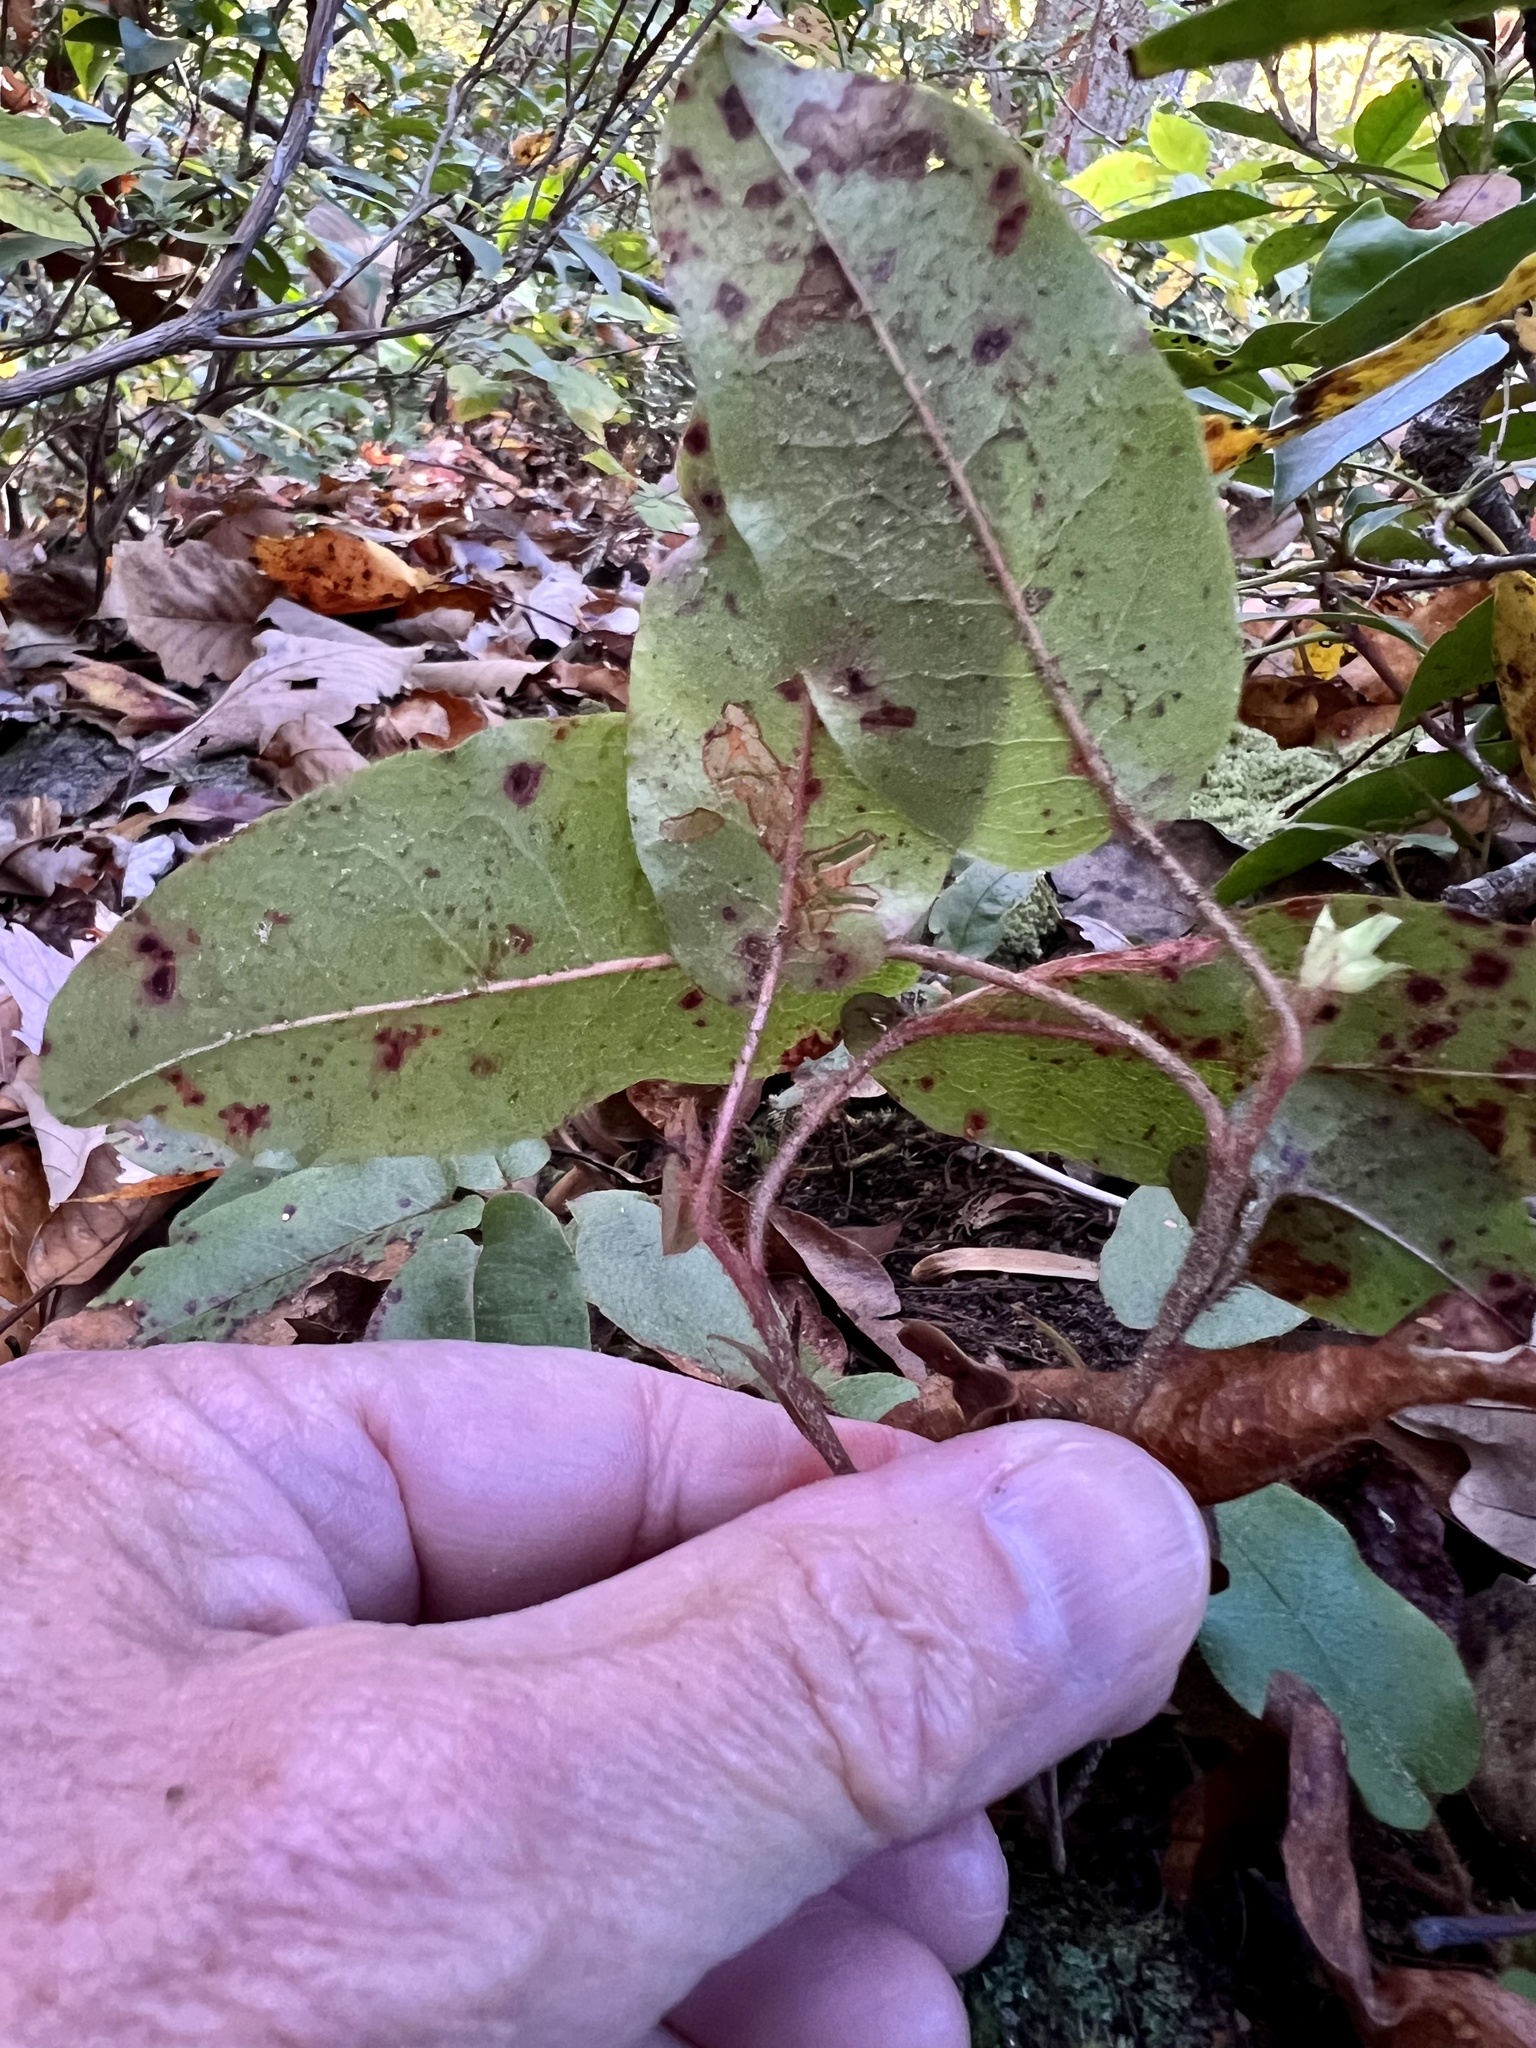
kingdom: Plantae
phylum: Tracheophyta
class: Magnoliopsida
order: Ericales
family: Ericaceae
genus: Epigaea
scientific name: Epigaea repens
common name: Gravelroot
